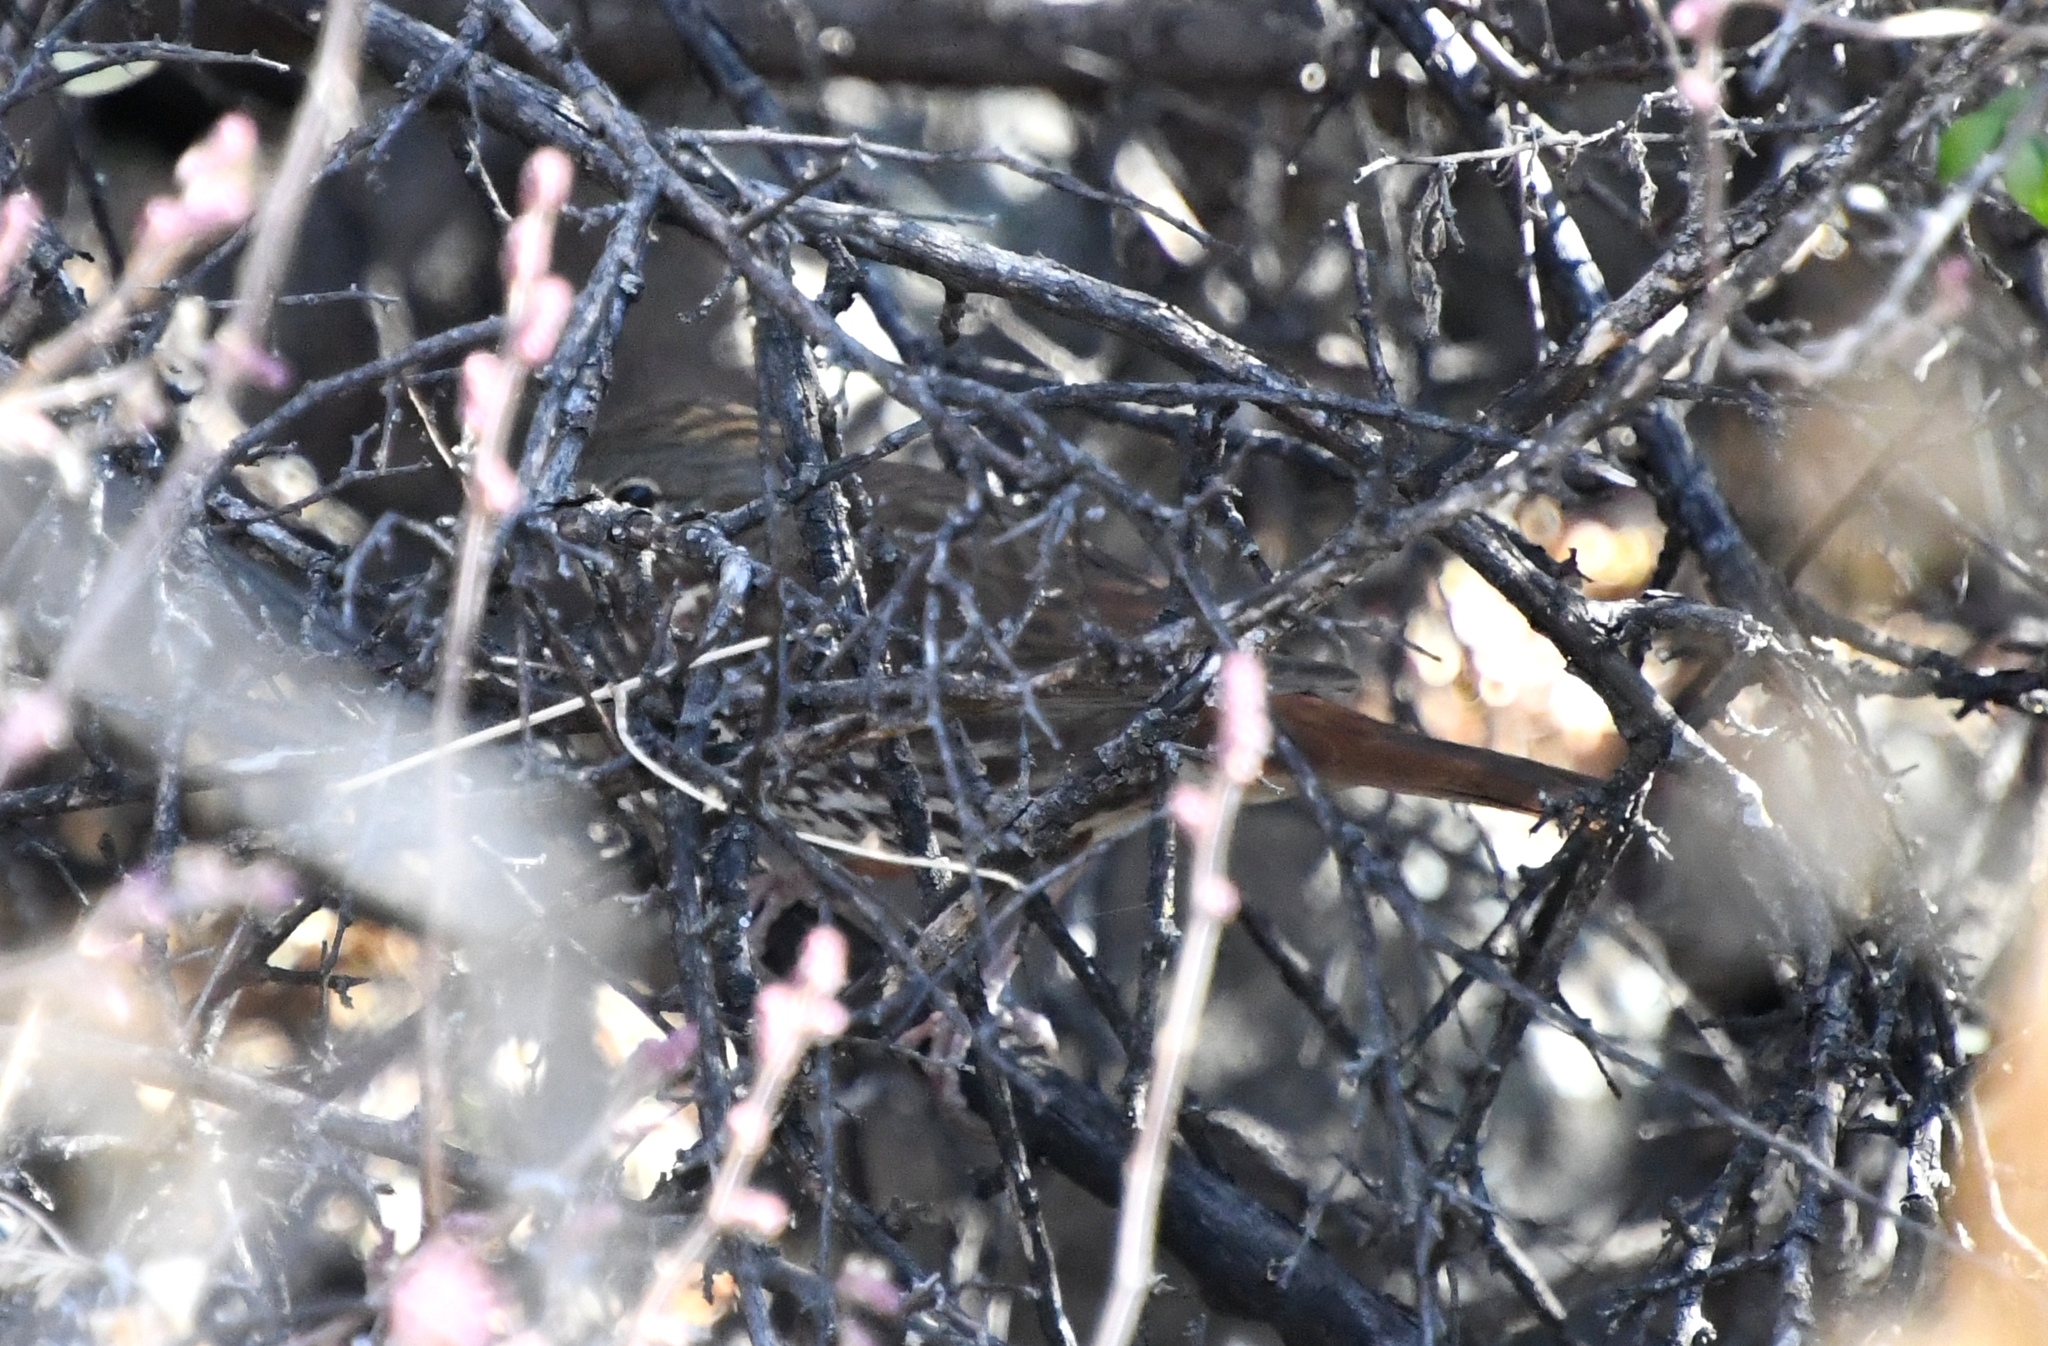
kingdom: Animalia
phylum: Chordata
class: Aves
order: Passeriformes
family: Passerellidae
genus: Passerella
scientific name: Passerella iliaca
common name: Fox sparrow
